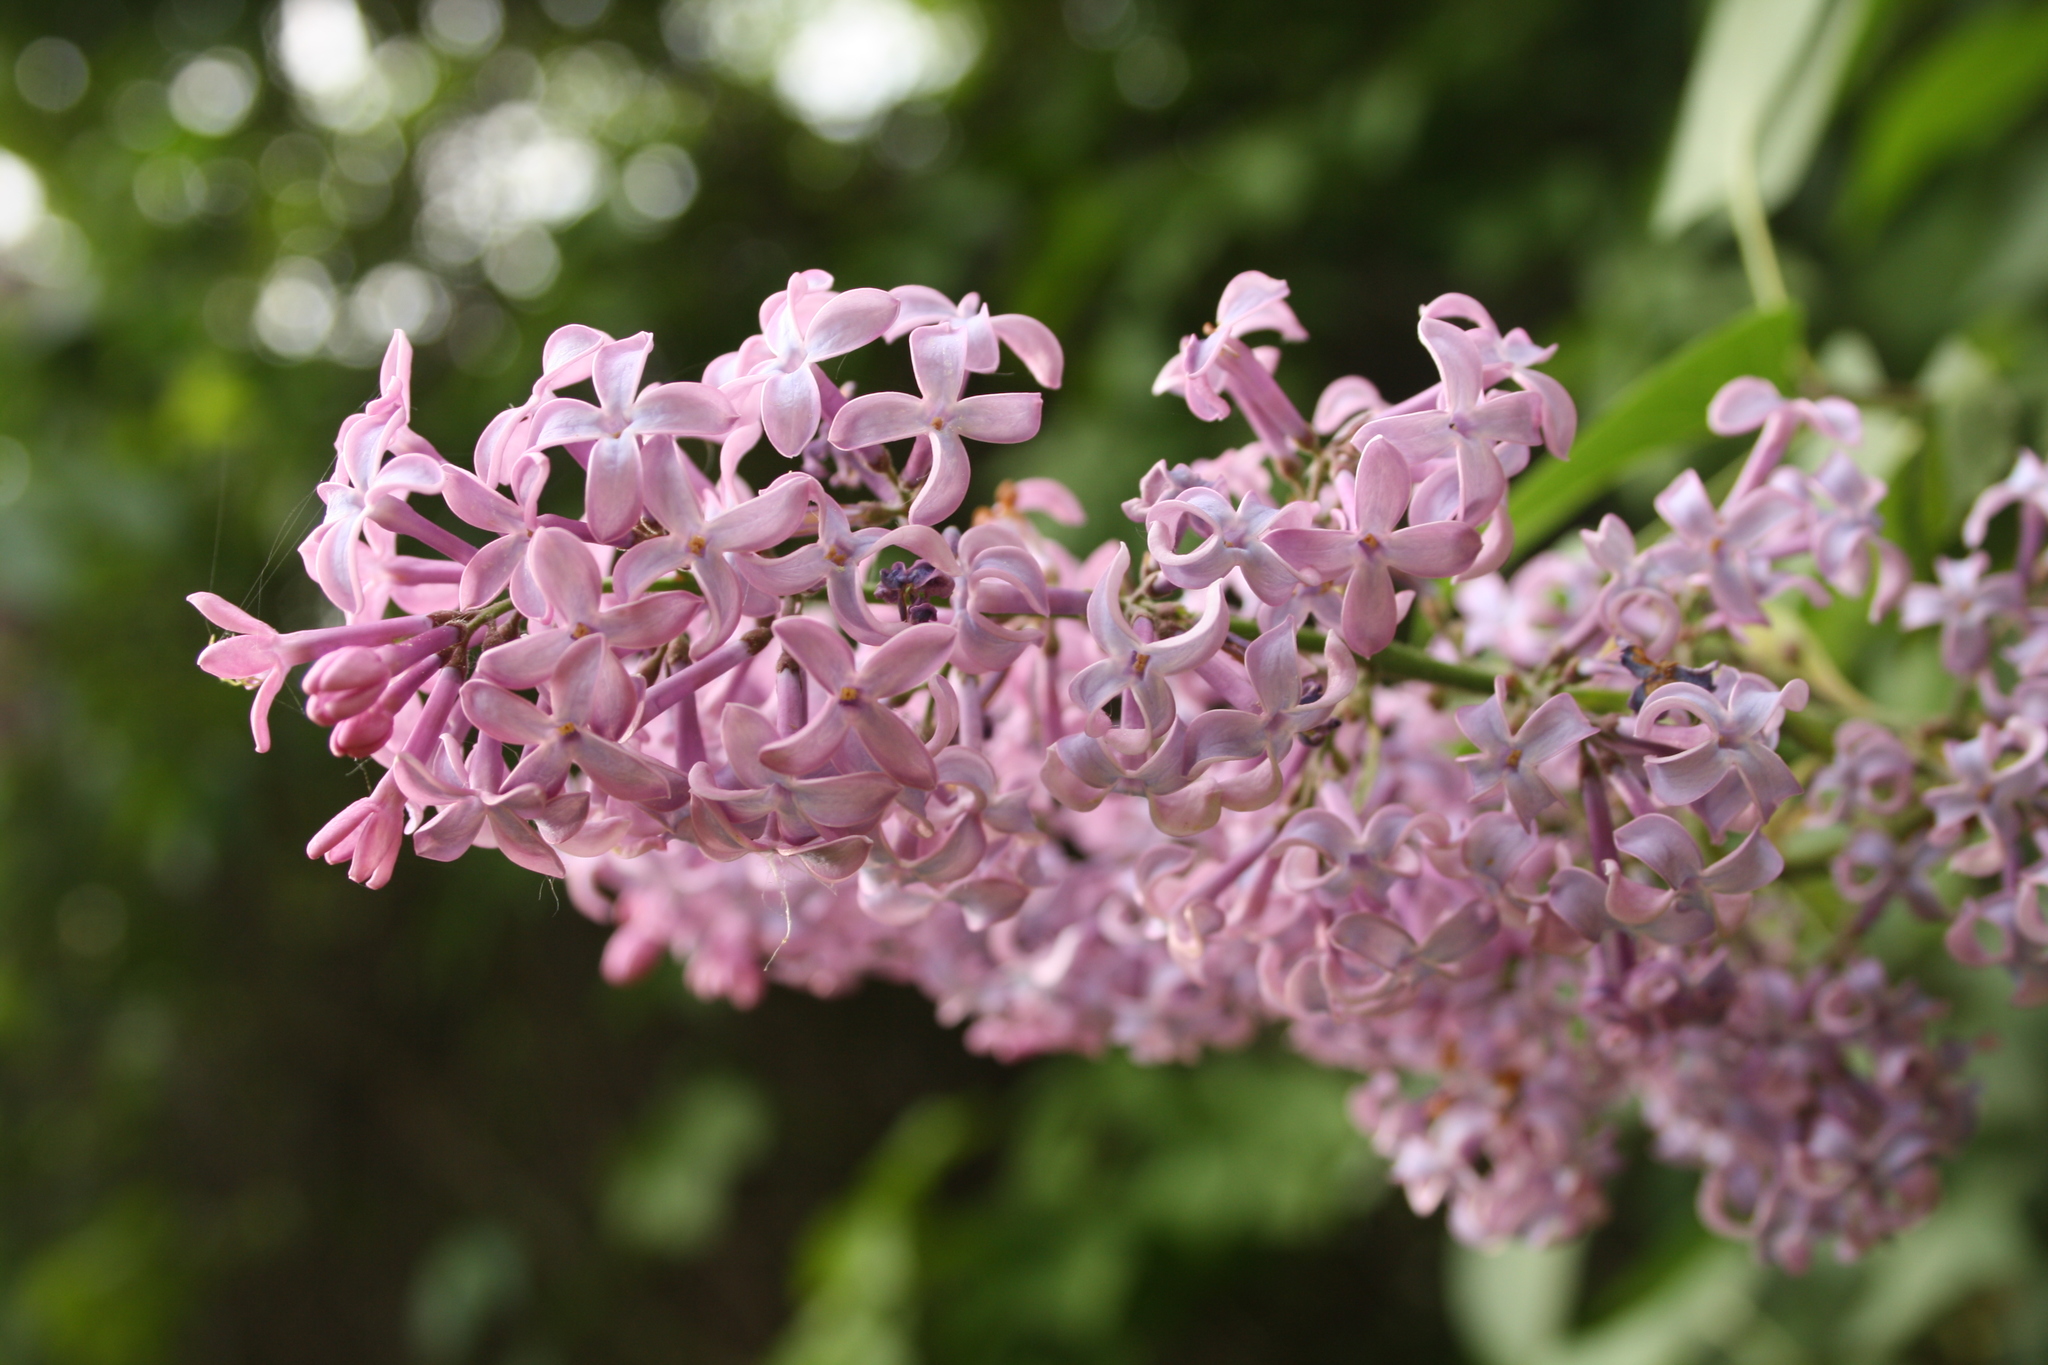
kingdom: Plantae
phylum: Tracheophyta
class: Magnoliopsida
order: Lamiales
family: Oleaceae
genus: Syringa
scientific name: Syringa vulgaris
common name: Common lilac
